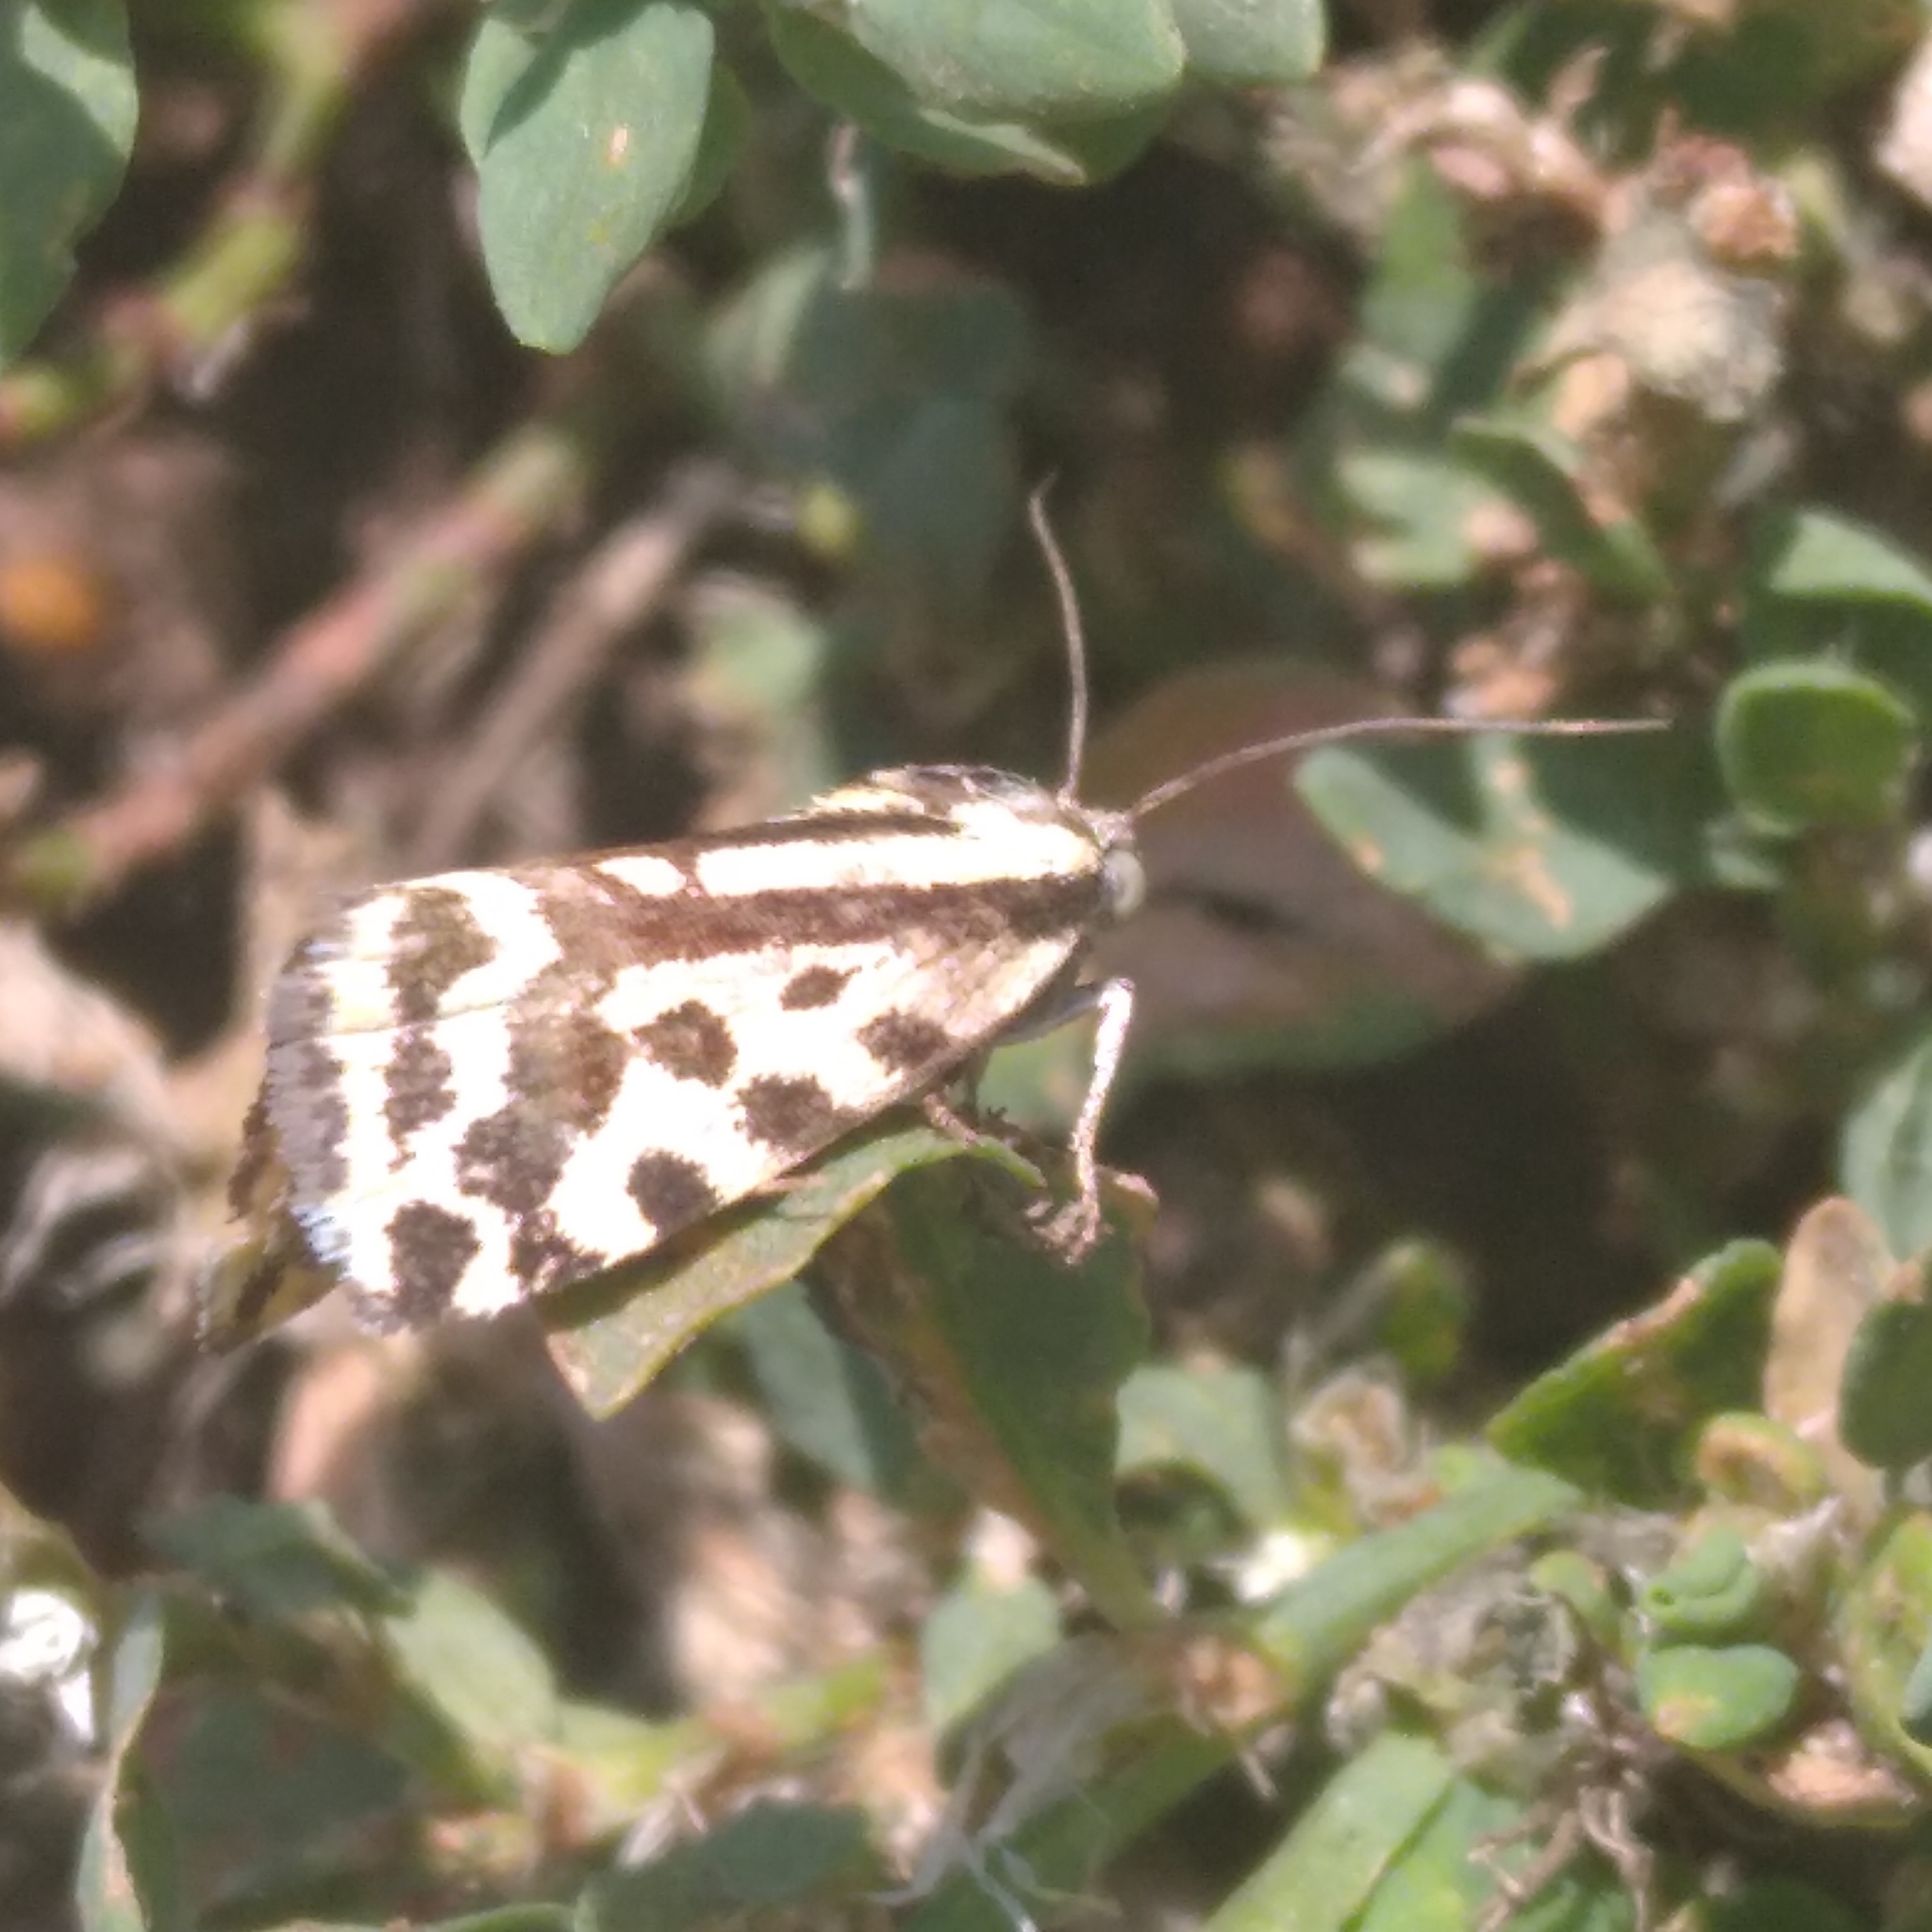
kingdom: Animalia
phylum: Arthropoda
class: Insecta
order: Lepidoptera
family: Noctuidae
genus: Acontia
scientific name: Acontia trabealis
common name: Spotted sulphur
